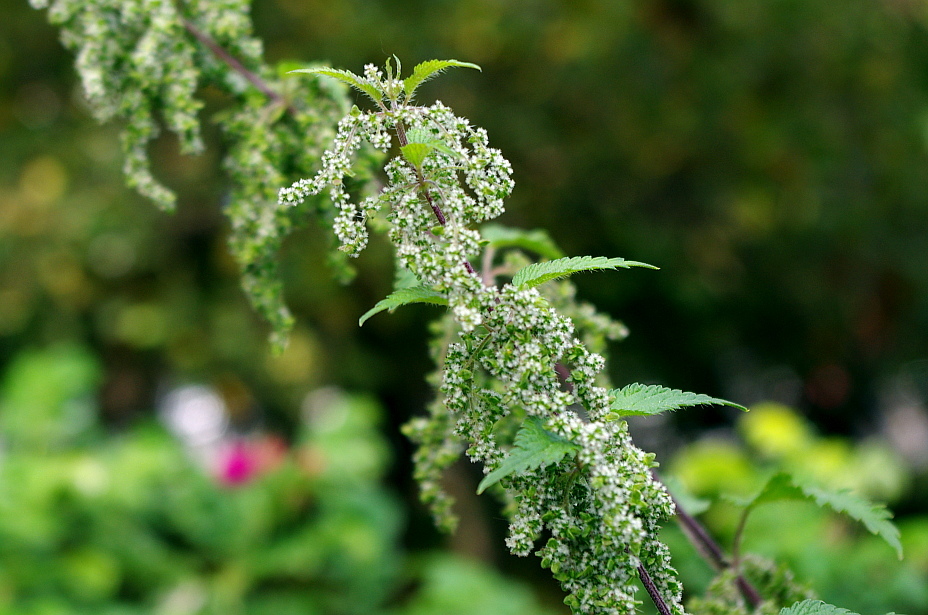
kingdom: Plantae
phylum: Tracheophyta
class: Magnoliopsida
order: Rosales
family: Urticaceae
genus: Urtica
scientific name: Urtica dioica
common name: Common nettle
